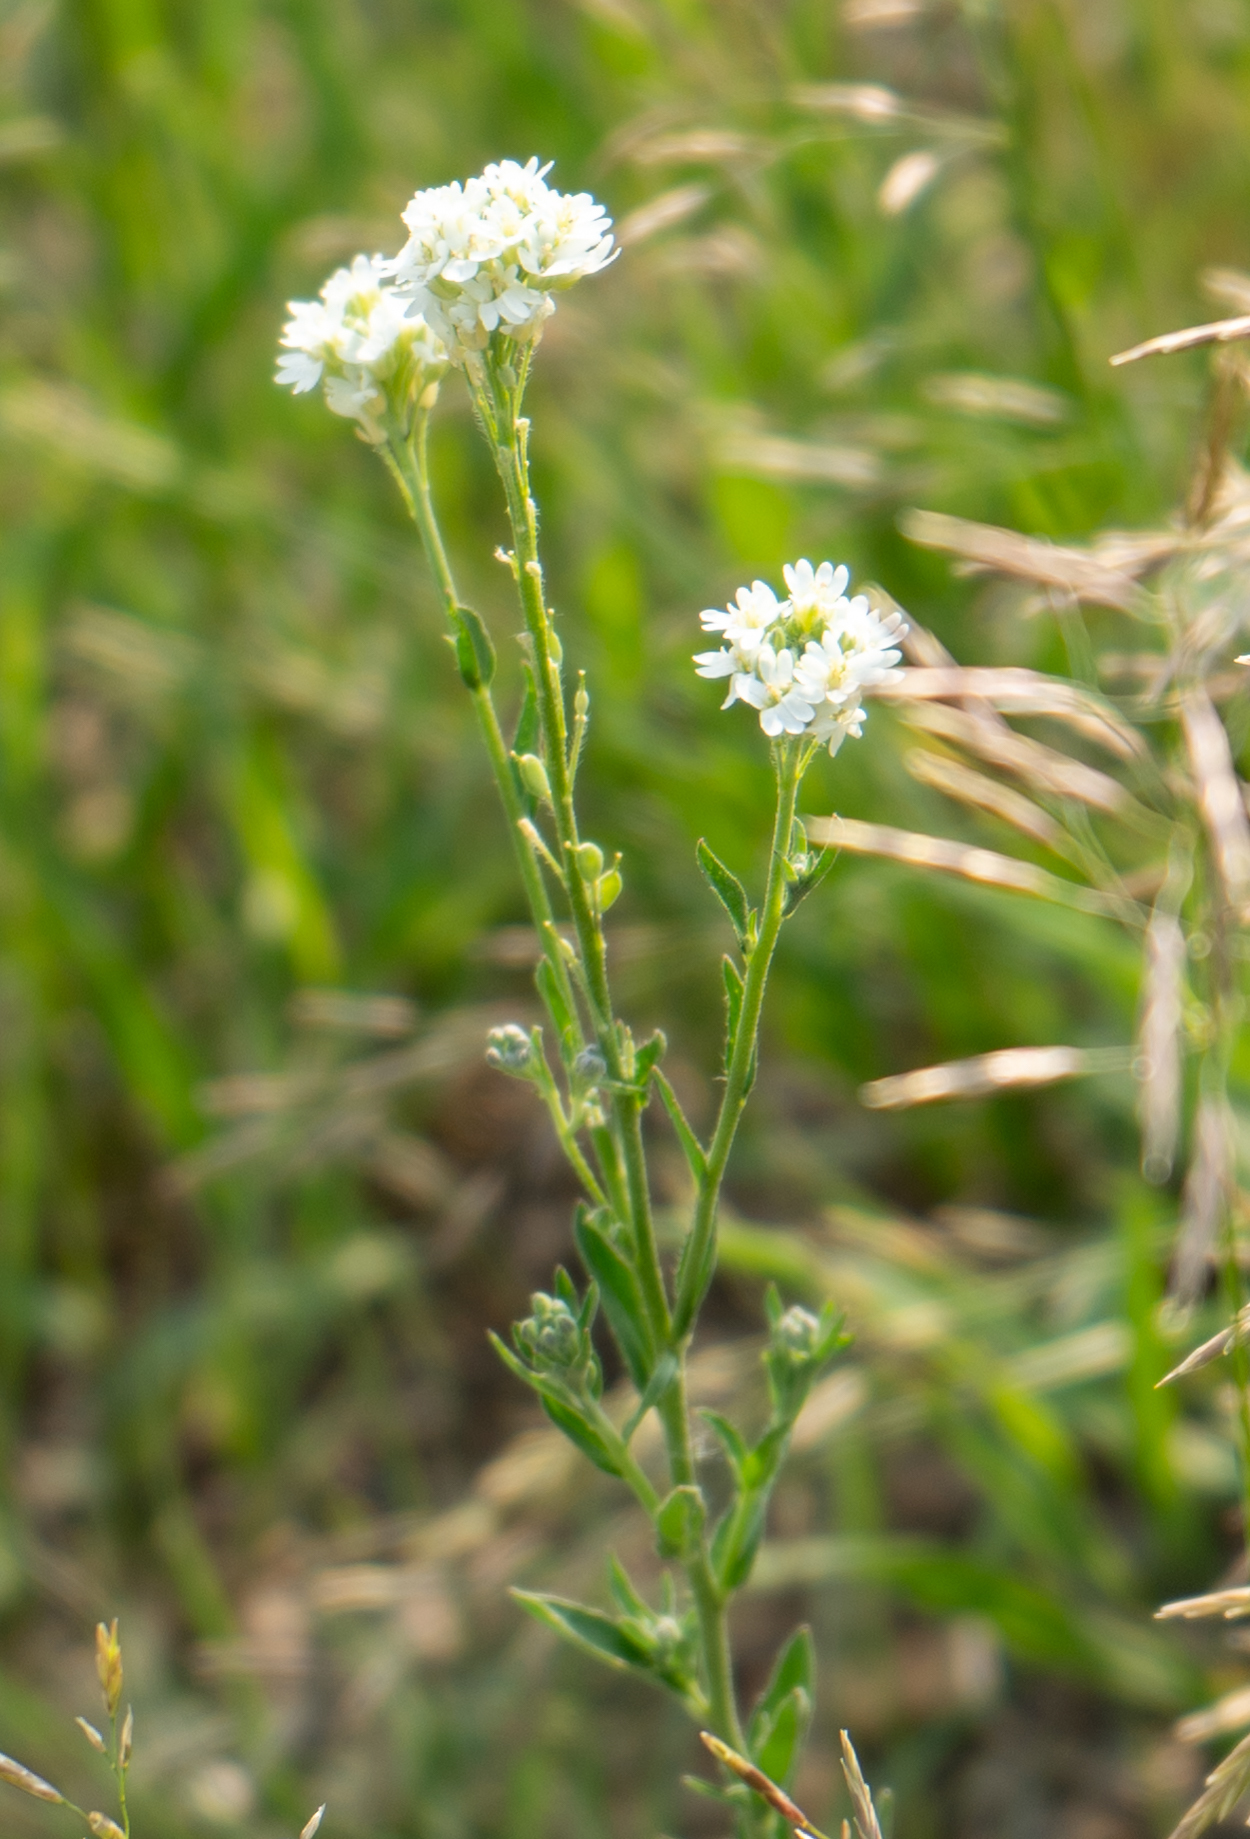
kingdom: Plantae
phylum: Tracheophyta
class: Magnoliopsida
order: Brassicales
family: Brassicaceae
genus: Berteroa
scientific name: Berteroa incana
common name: Hoary alison
